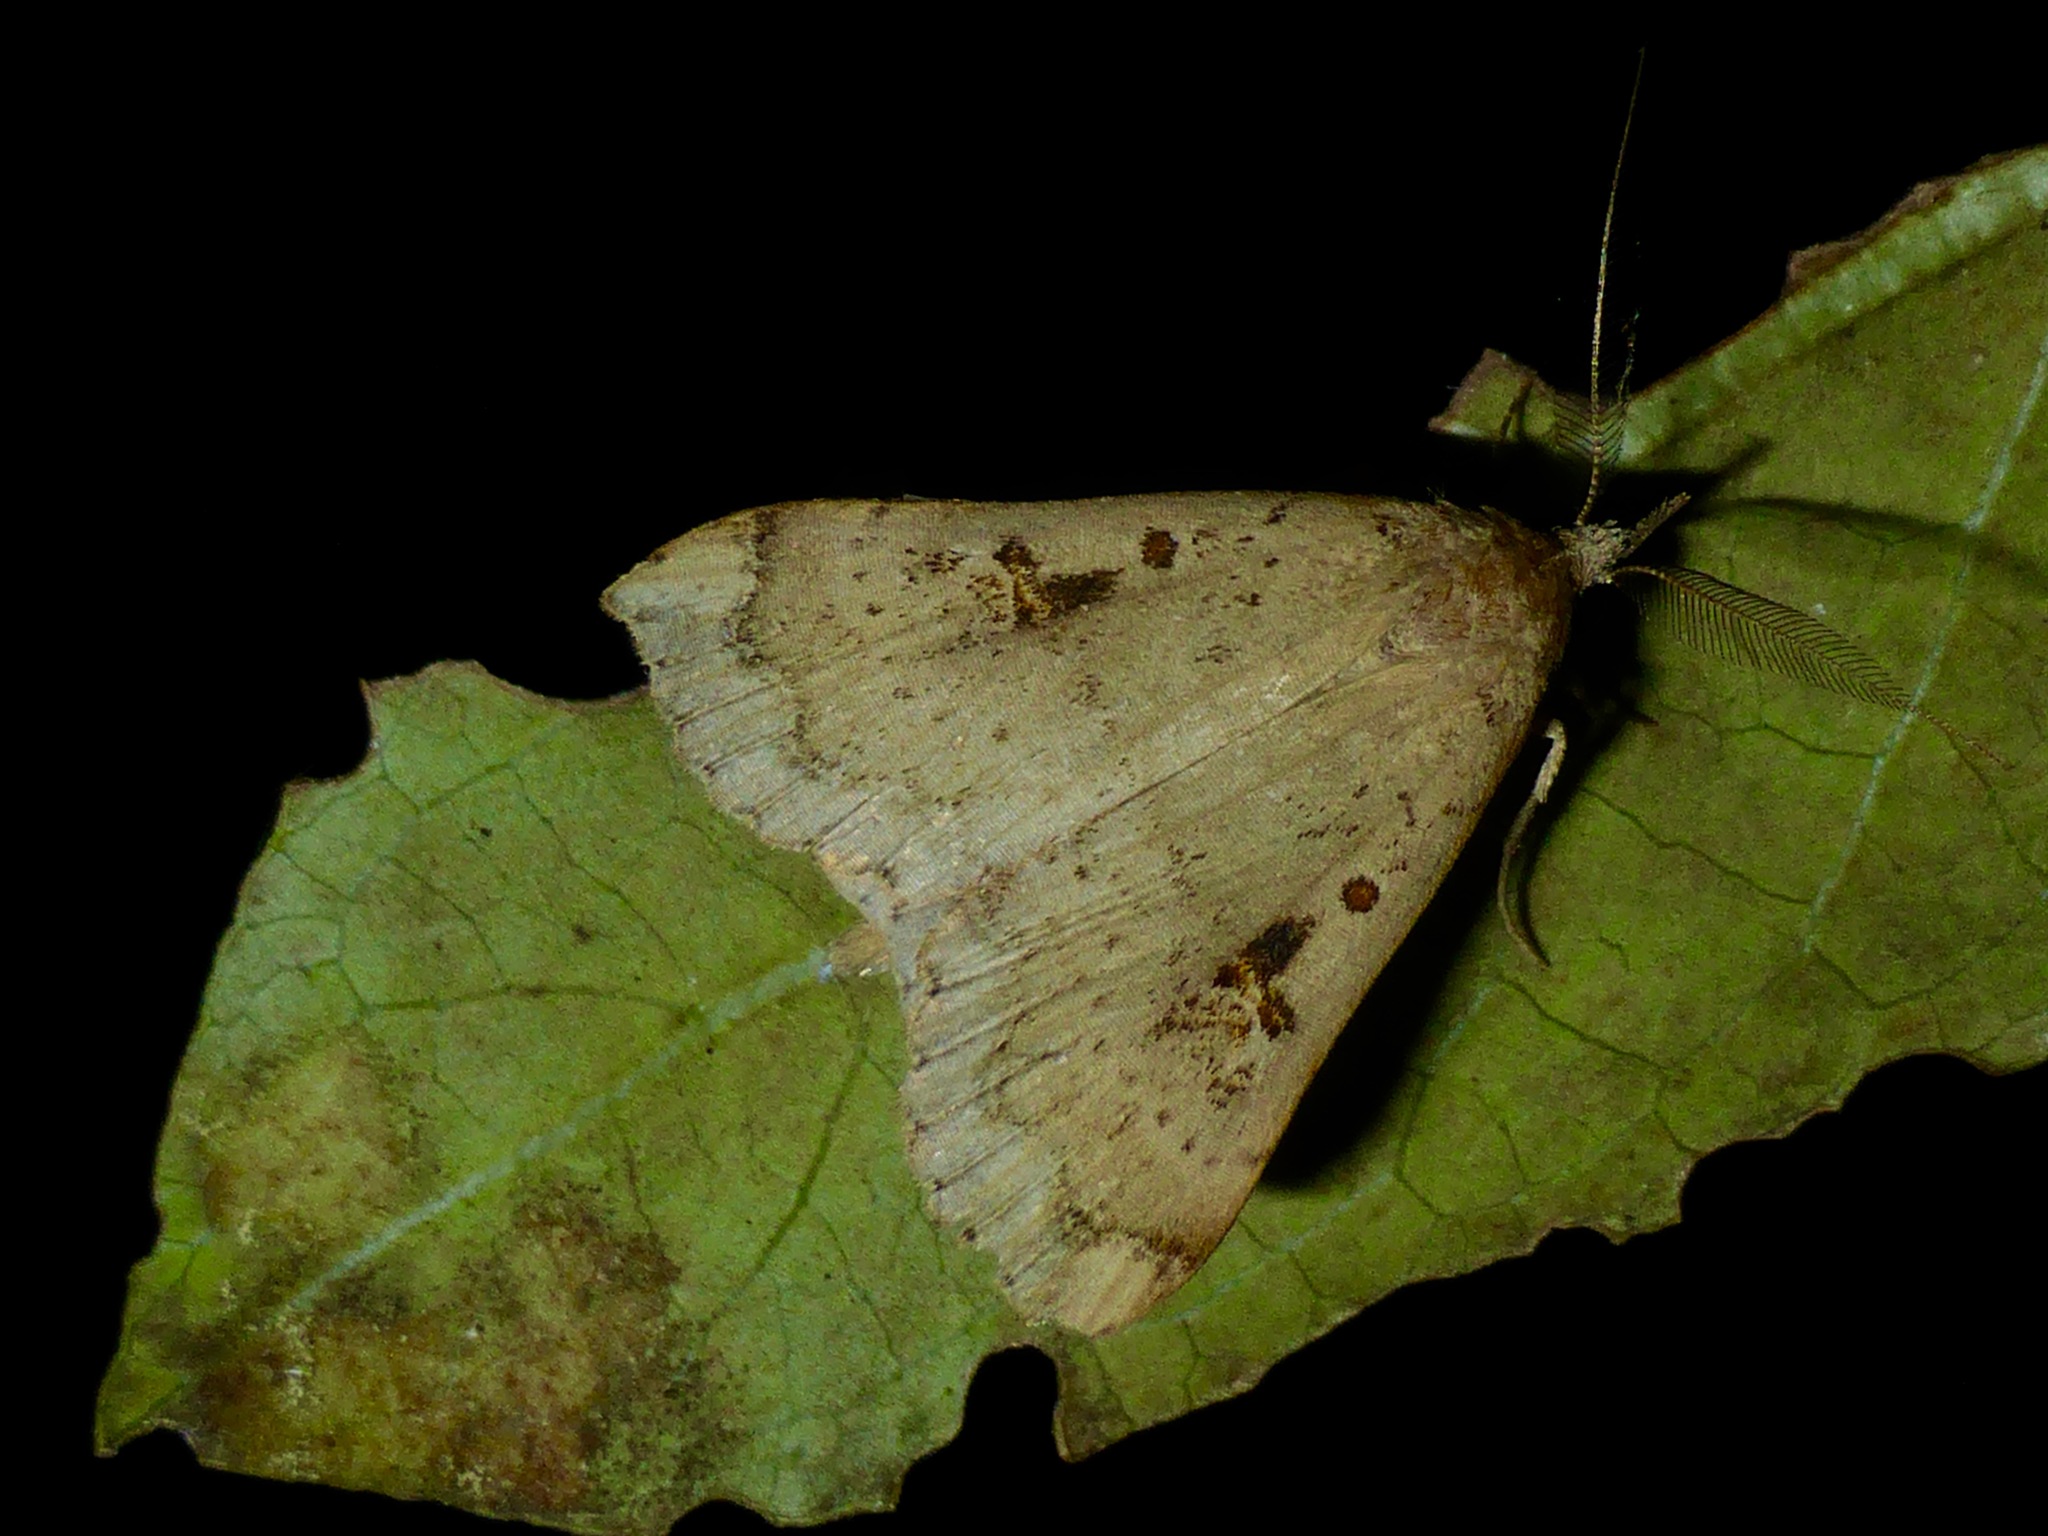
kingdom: Animalia
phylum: Arthropoda
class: Insecta
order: Lepidoptera
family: Erebidae
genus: Rhapsa
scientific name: Rhapsa scotosialis
